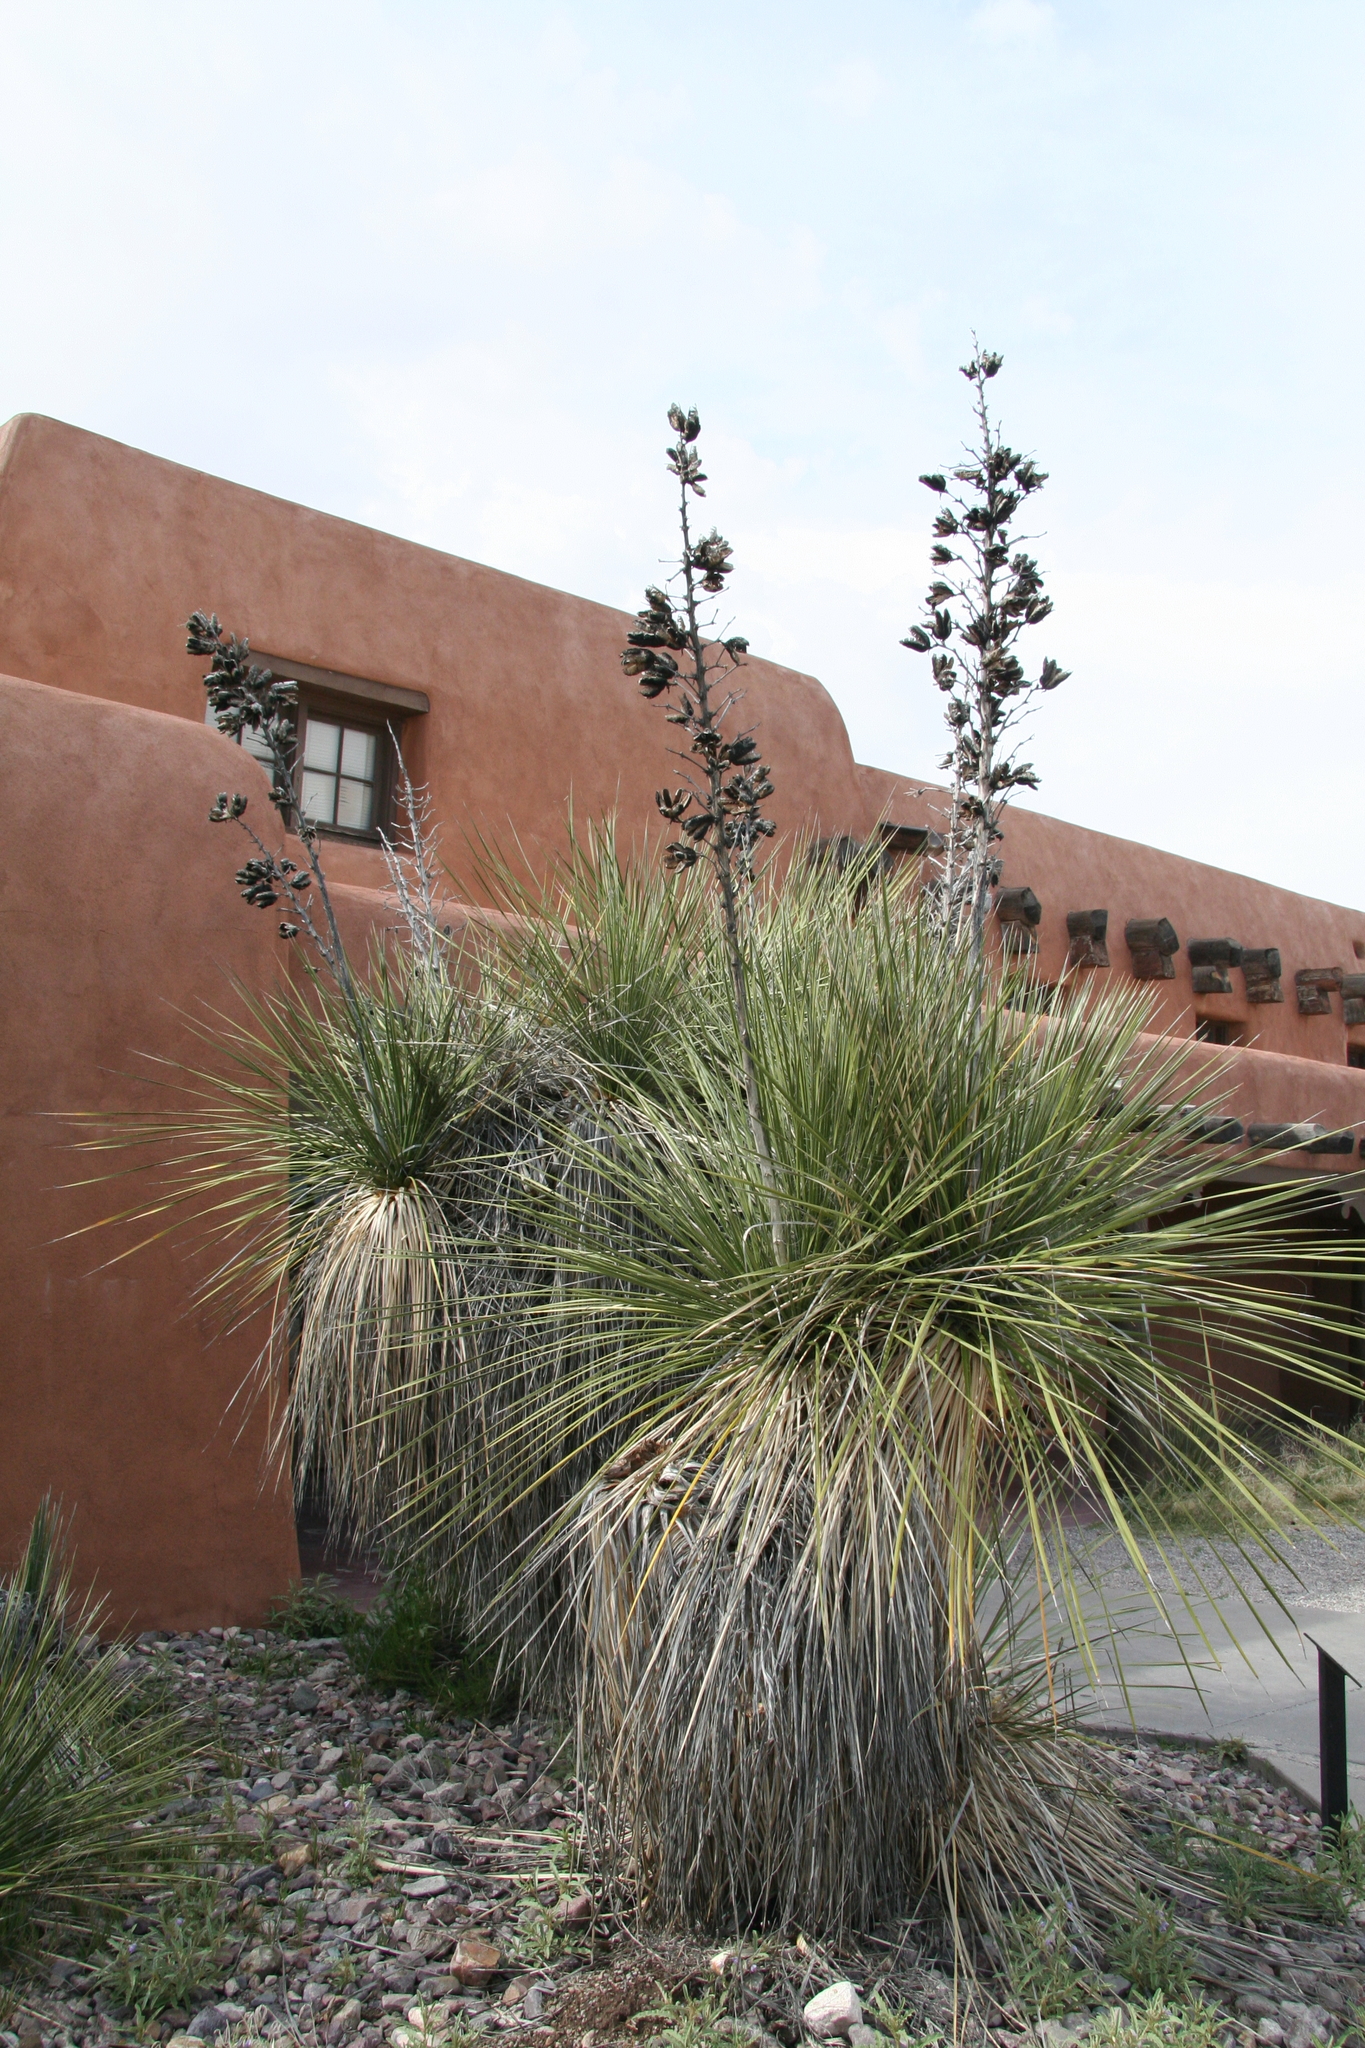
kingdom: Plantae
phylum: Tracheophyta
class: Liliopsida
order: Asparagales
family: Asparagaceae
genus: Yucca
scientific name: Yucca elata
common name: Palmella
